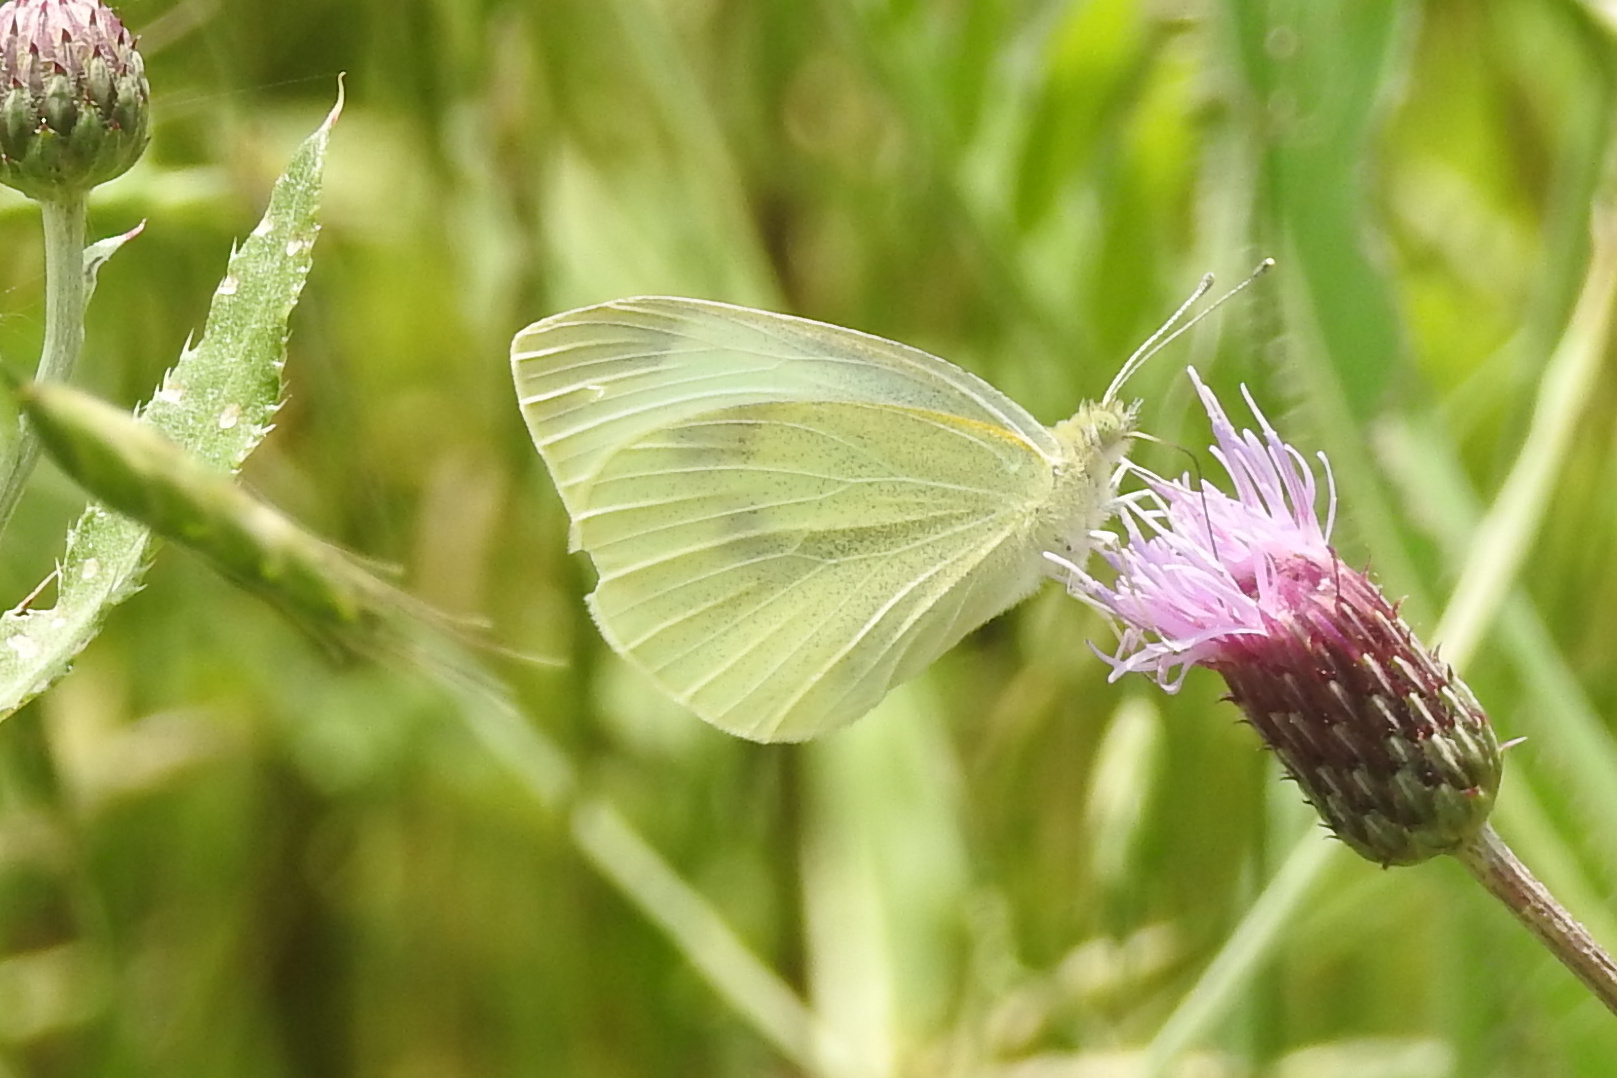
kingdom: Animalia
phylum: Arthropoda
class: Insecta
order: Lepidoptera
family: Pieridae
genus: Pieris
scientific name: Pieris rapae
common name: Small white
